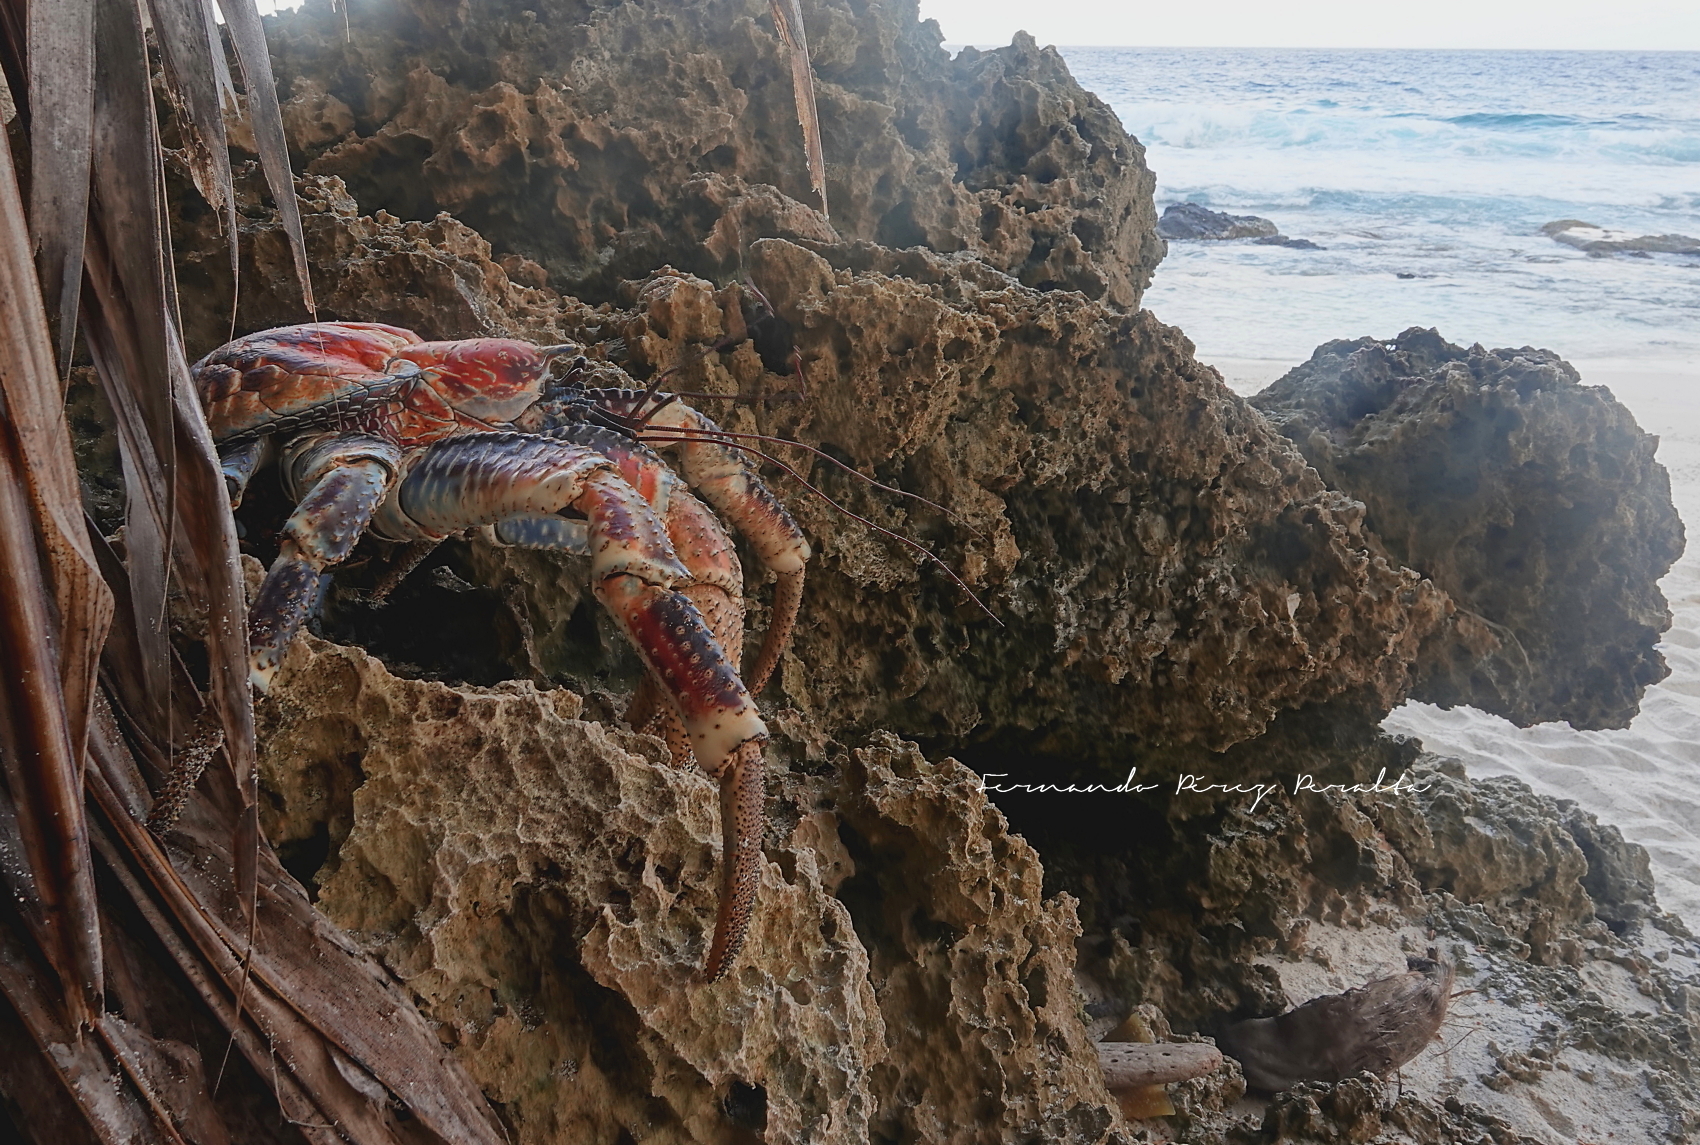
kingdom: Animalia
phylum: Arthropoda
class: Malacostraca
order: Decapoda
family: Coenobitidae
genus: Birgus
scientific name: Birgus latro
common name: Coconut crab
